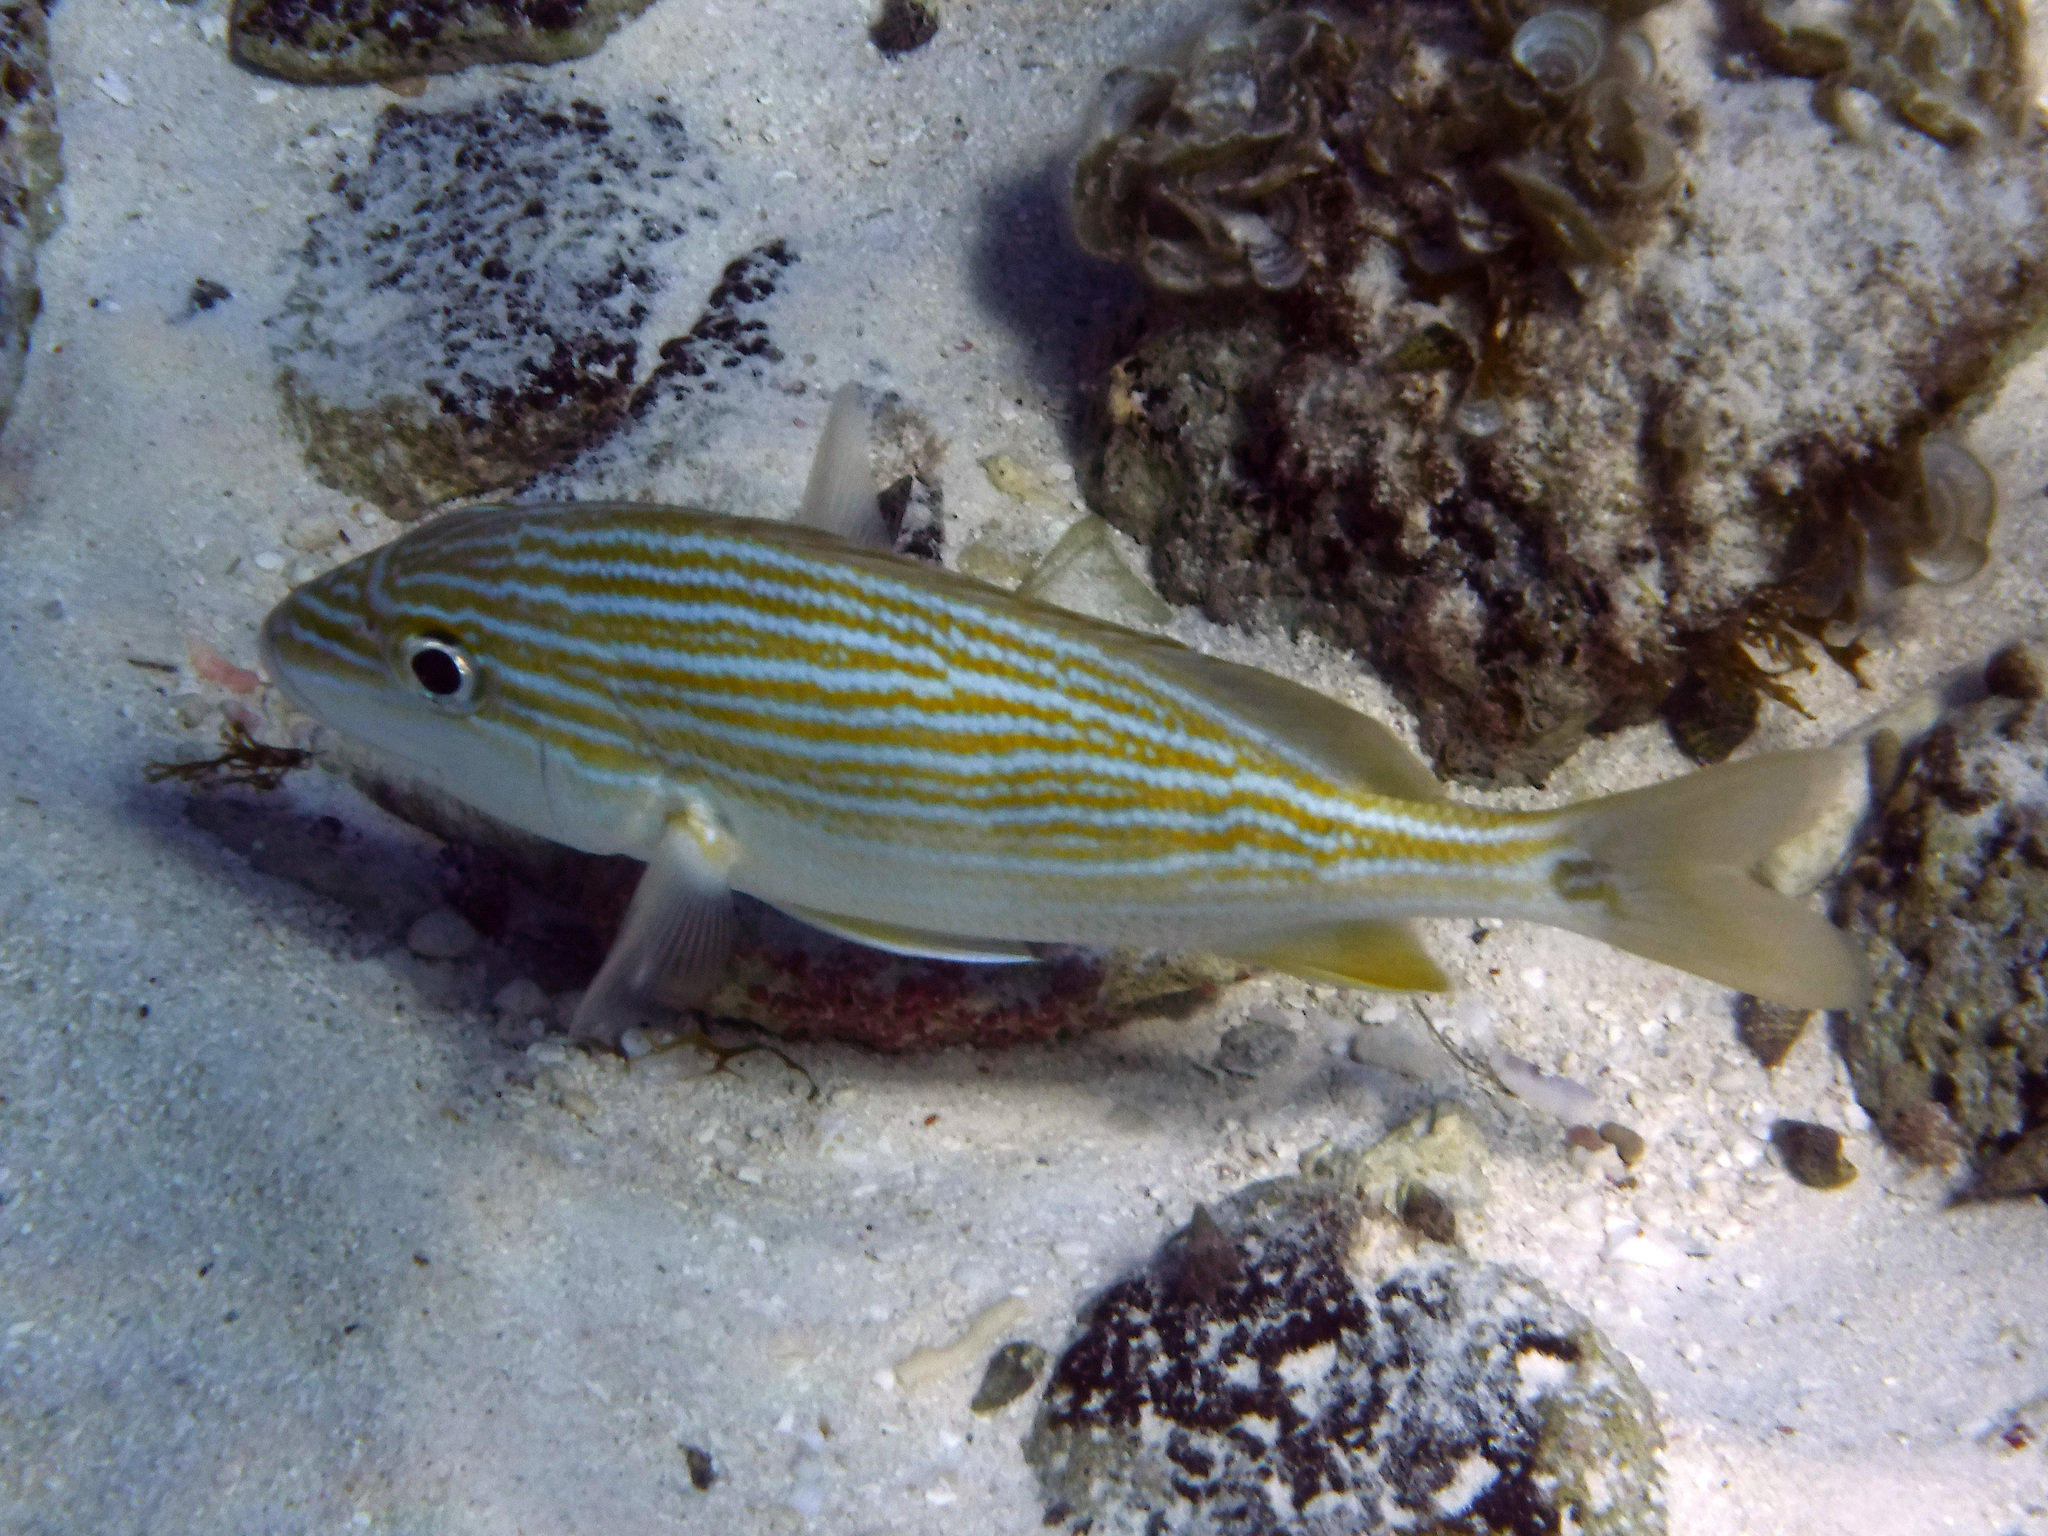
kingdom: Animalia
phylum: Chordata
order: Perciformes
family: Haemulidae
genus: Haemulon
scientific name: Haemulon carbonarium
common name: Caesar grunt
